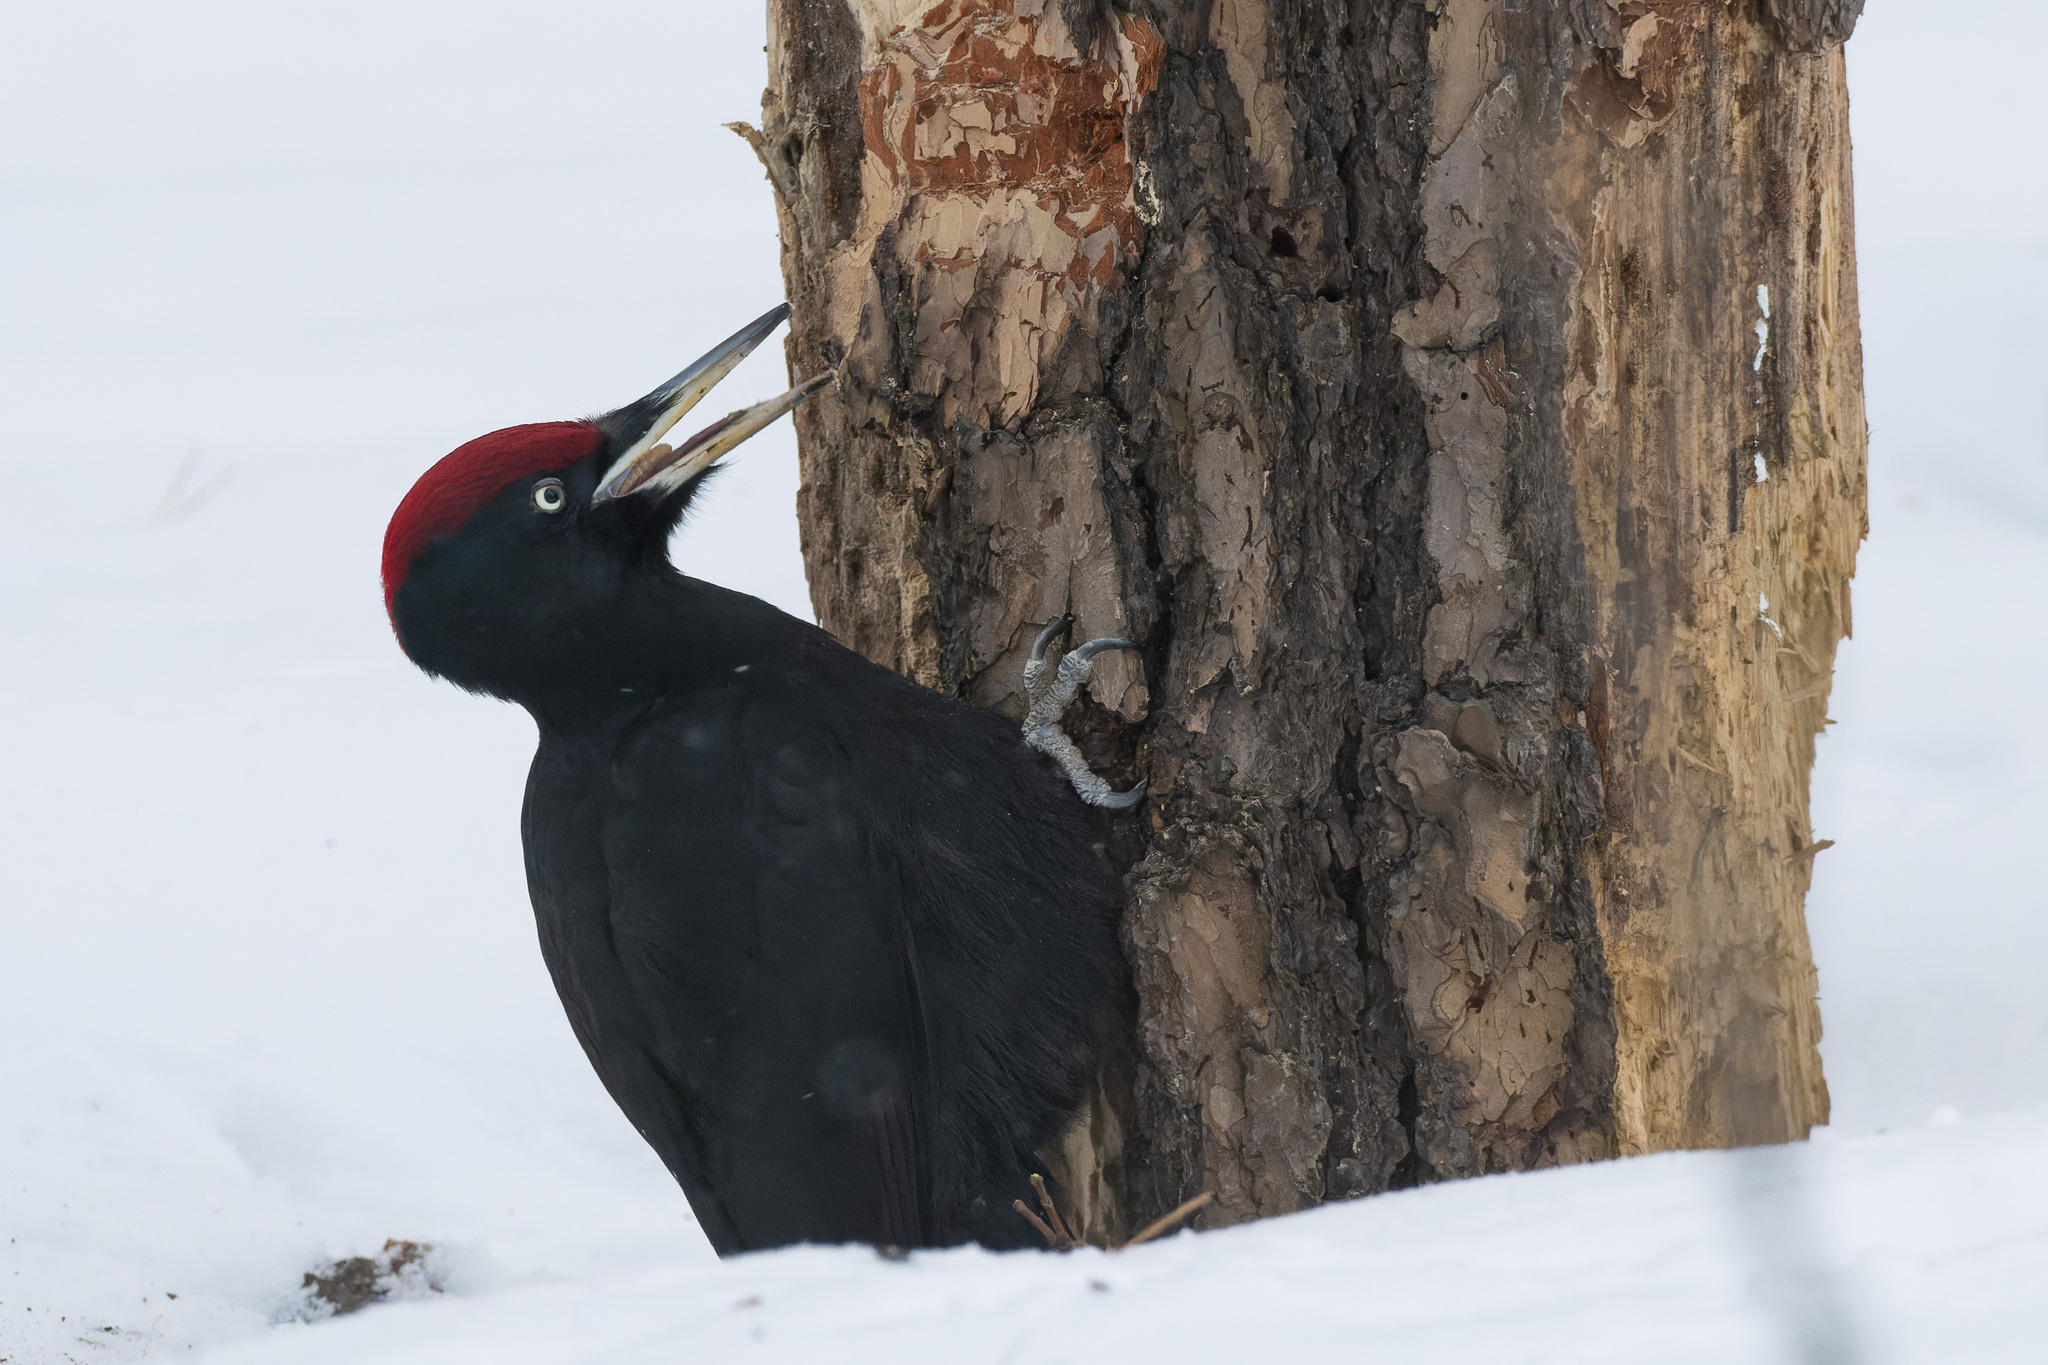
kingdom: Animalia
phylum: Chordata
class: Aves
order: Piciformes
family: Picidae
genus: Dryocopus
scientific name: Dryocopus martius
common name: Black woodpecker
